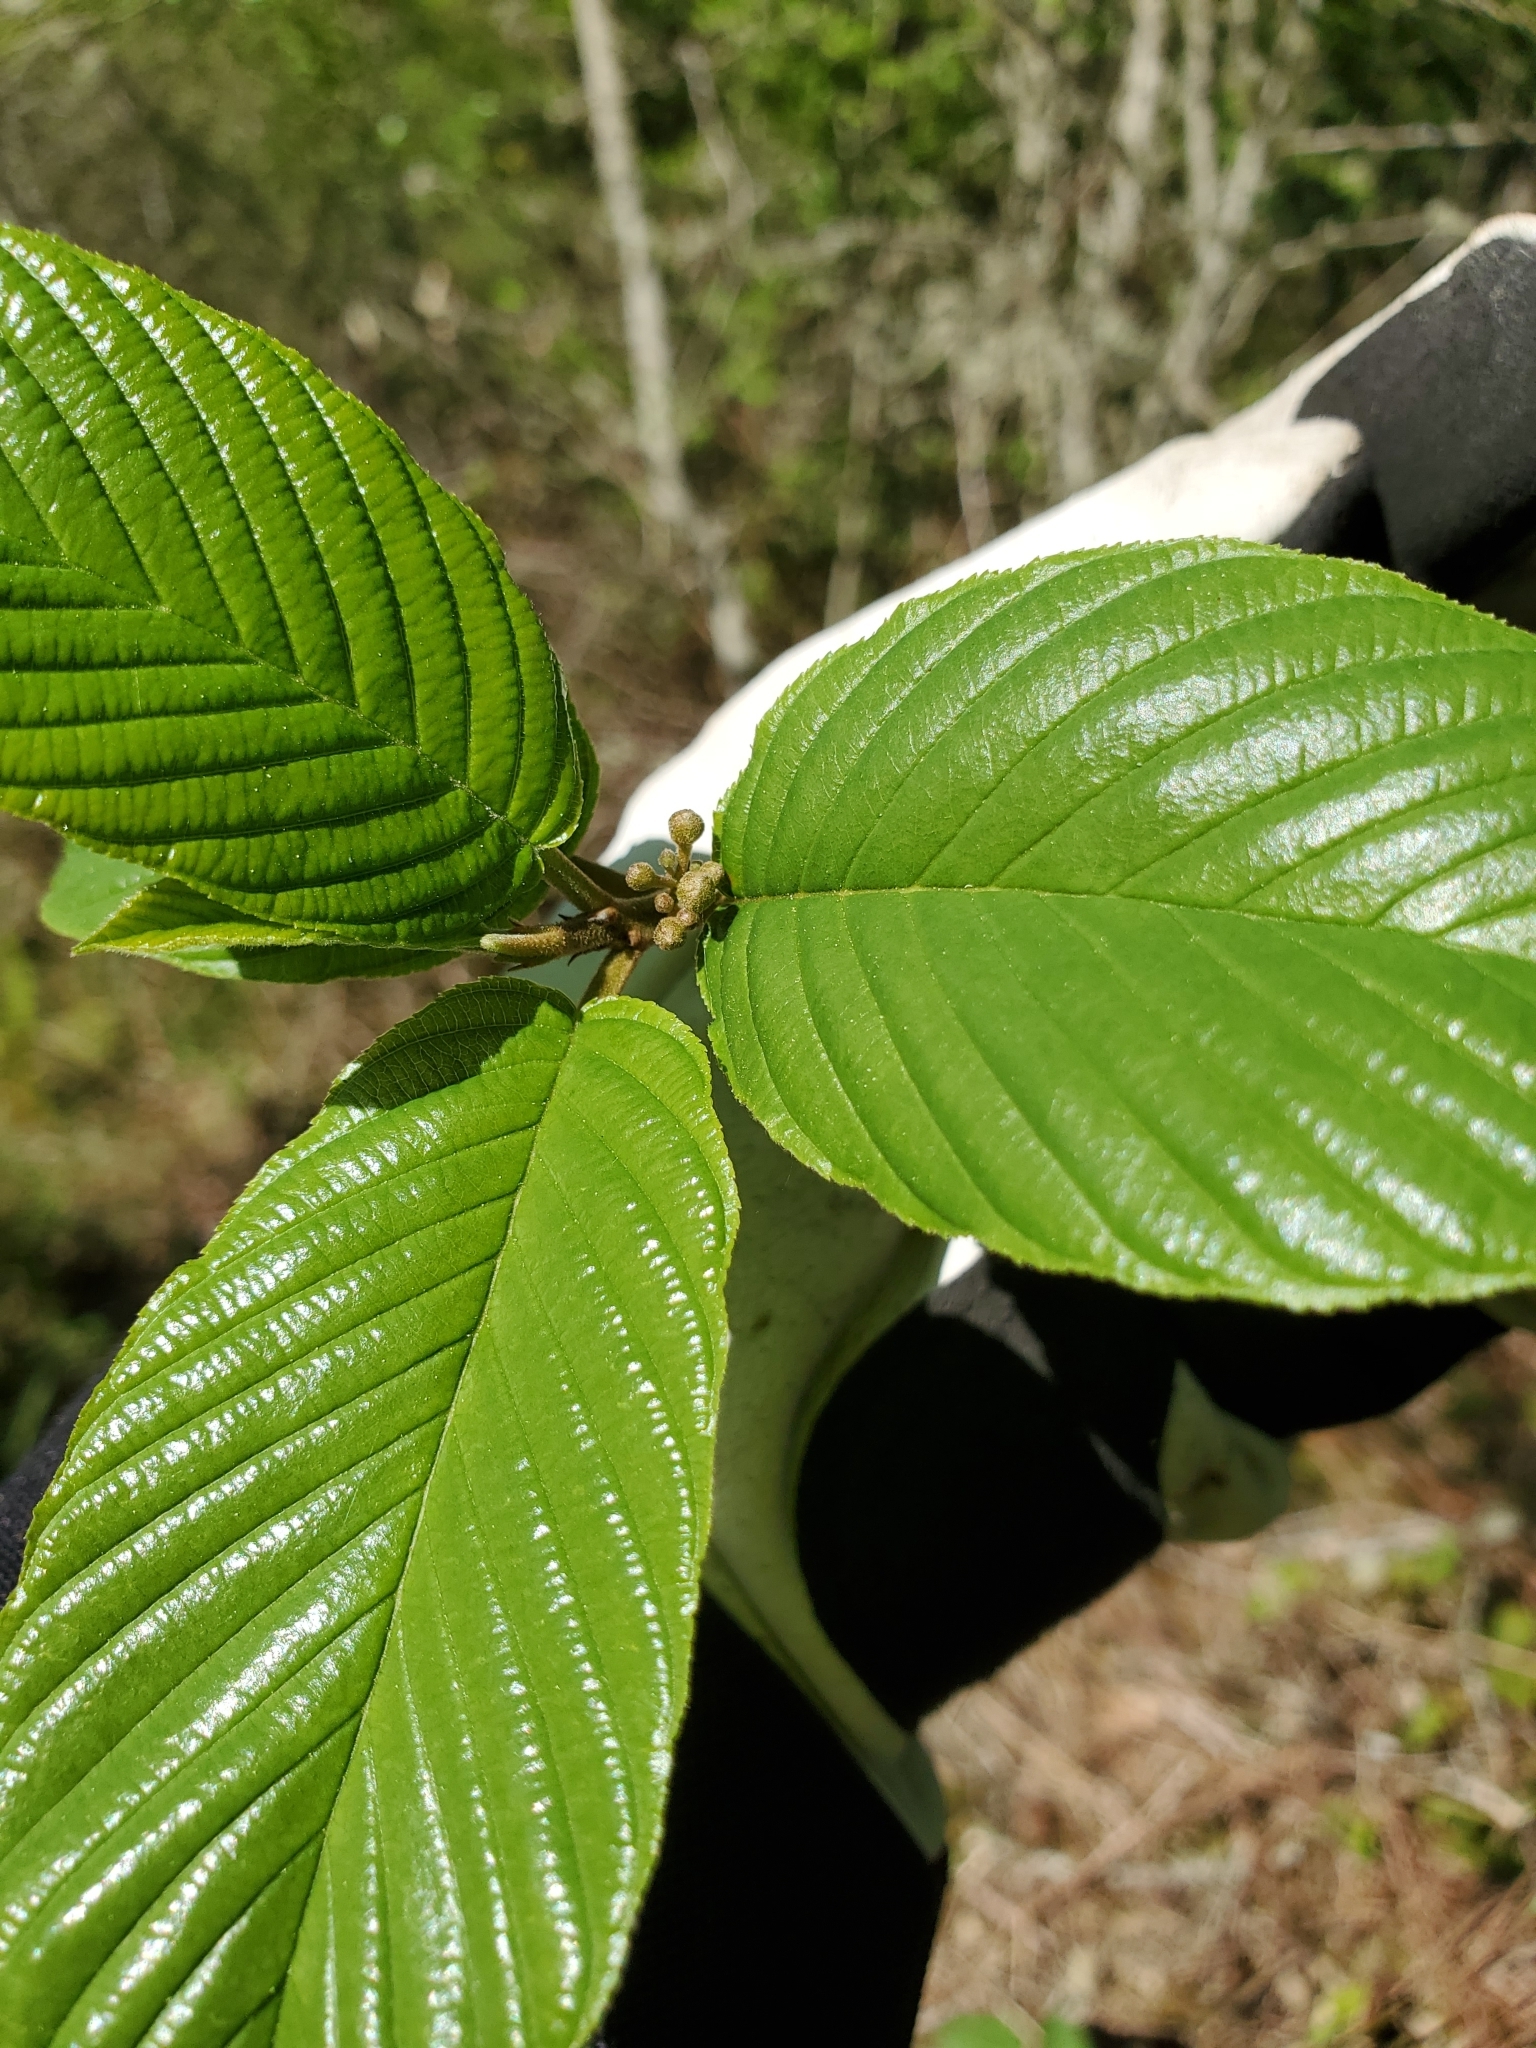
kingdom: Plantae
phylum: Tracheophyta
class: Magnoliopsida
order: Rosales
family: Rhamnaceae
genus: Frangula
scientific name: Frangula purshiana
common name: Cascara buckthorn
